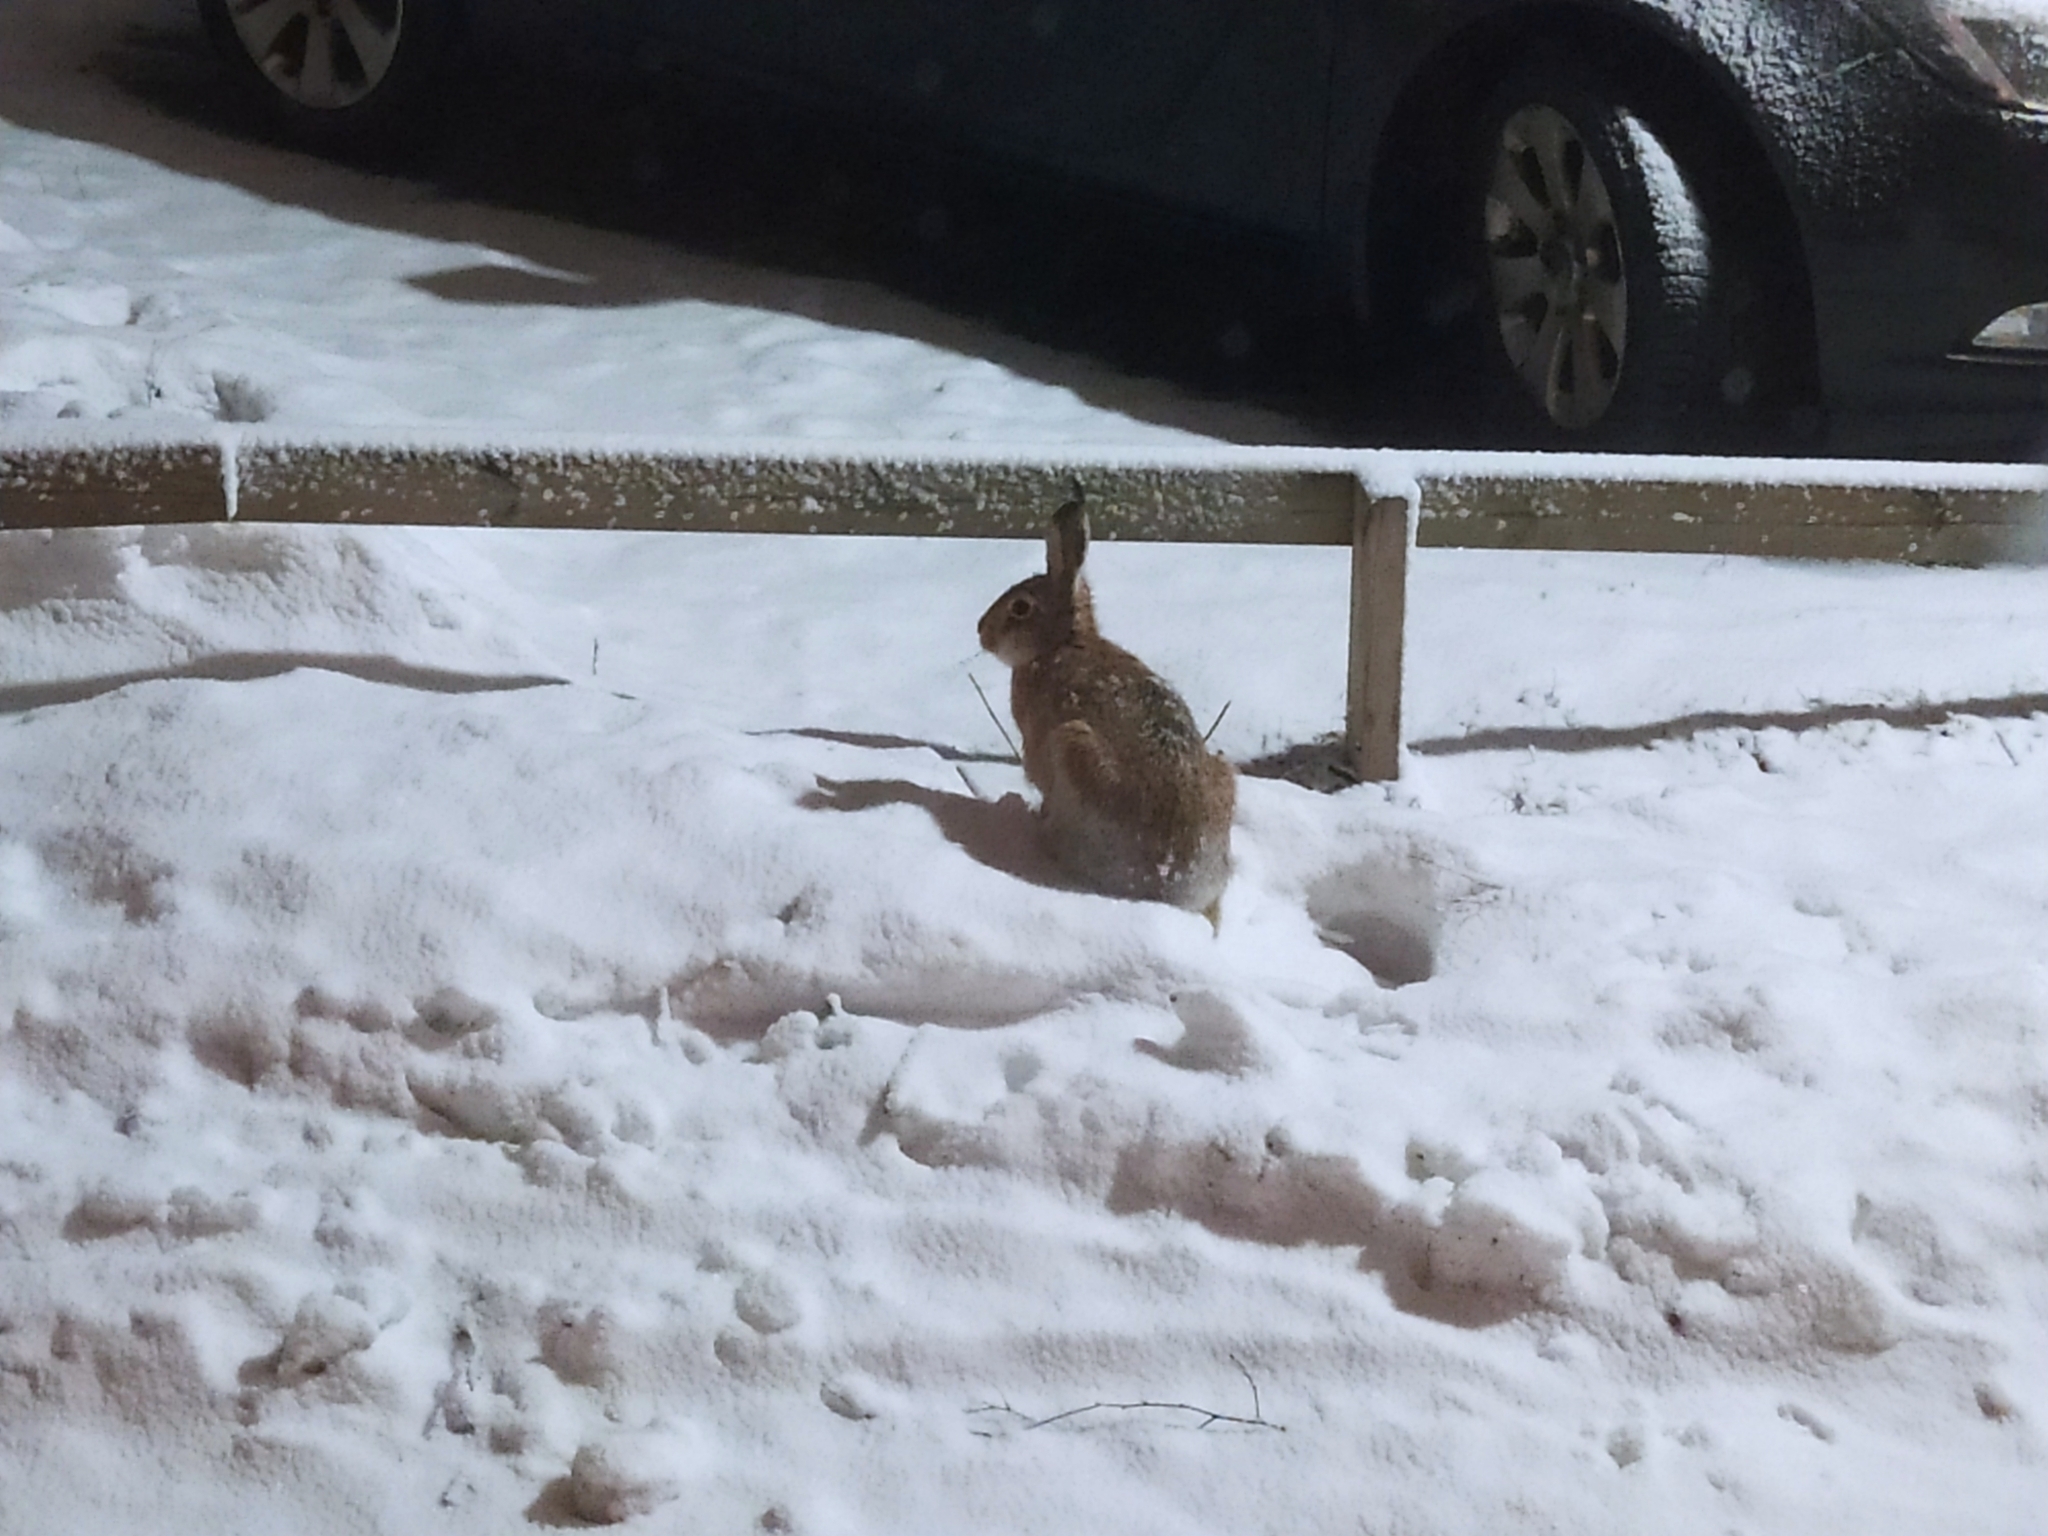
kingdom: Animalia
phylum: Chordata
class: Mammalia
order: Lagomorpha
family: Leporidae
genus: Lepus
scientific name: Lepus europaeus
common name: European hare
